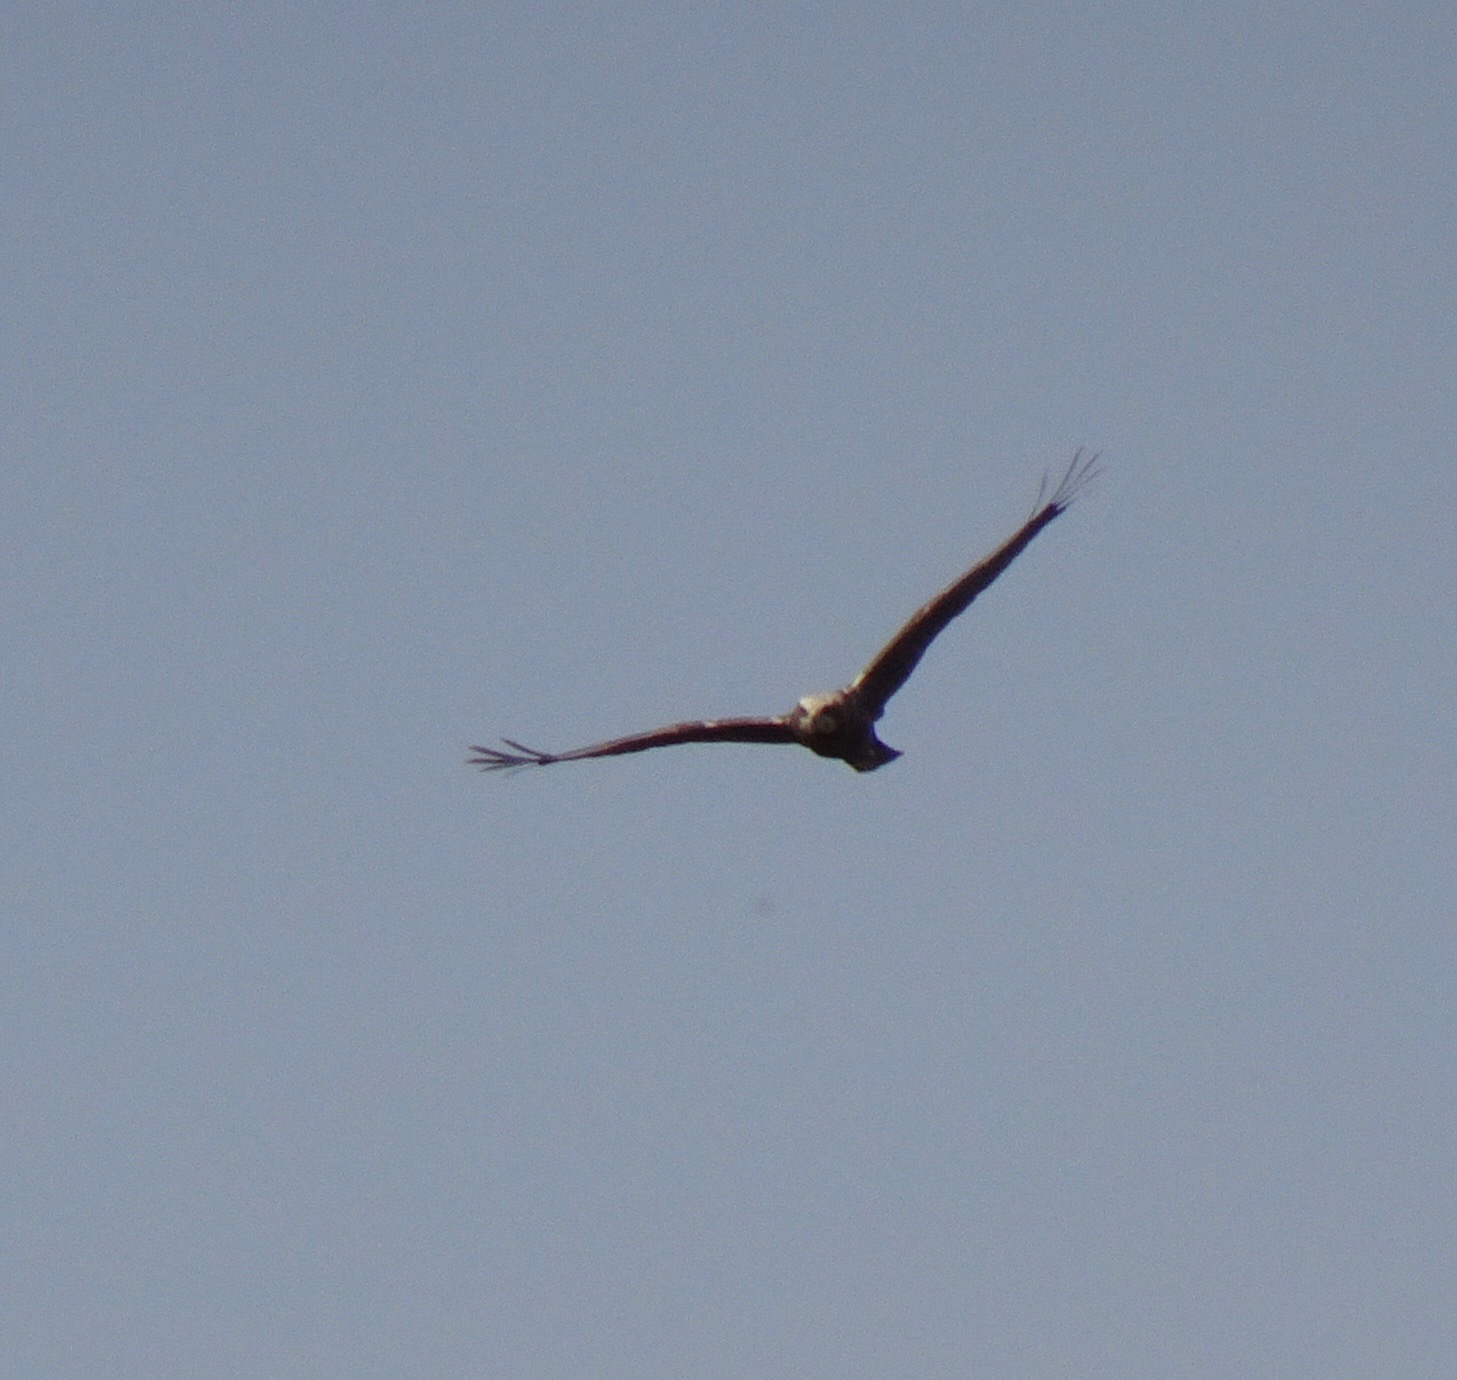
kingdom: Animalia
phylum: Chordata
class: Aves
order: Accipitriformes
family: Accipitridae
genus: Circus
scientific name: Circus aeruginosus
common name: Western marsh harrier
